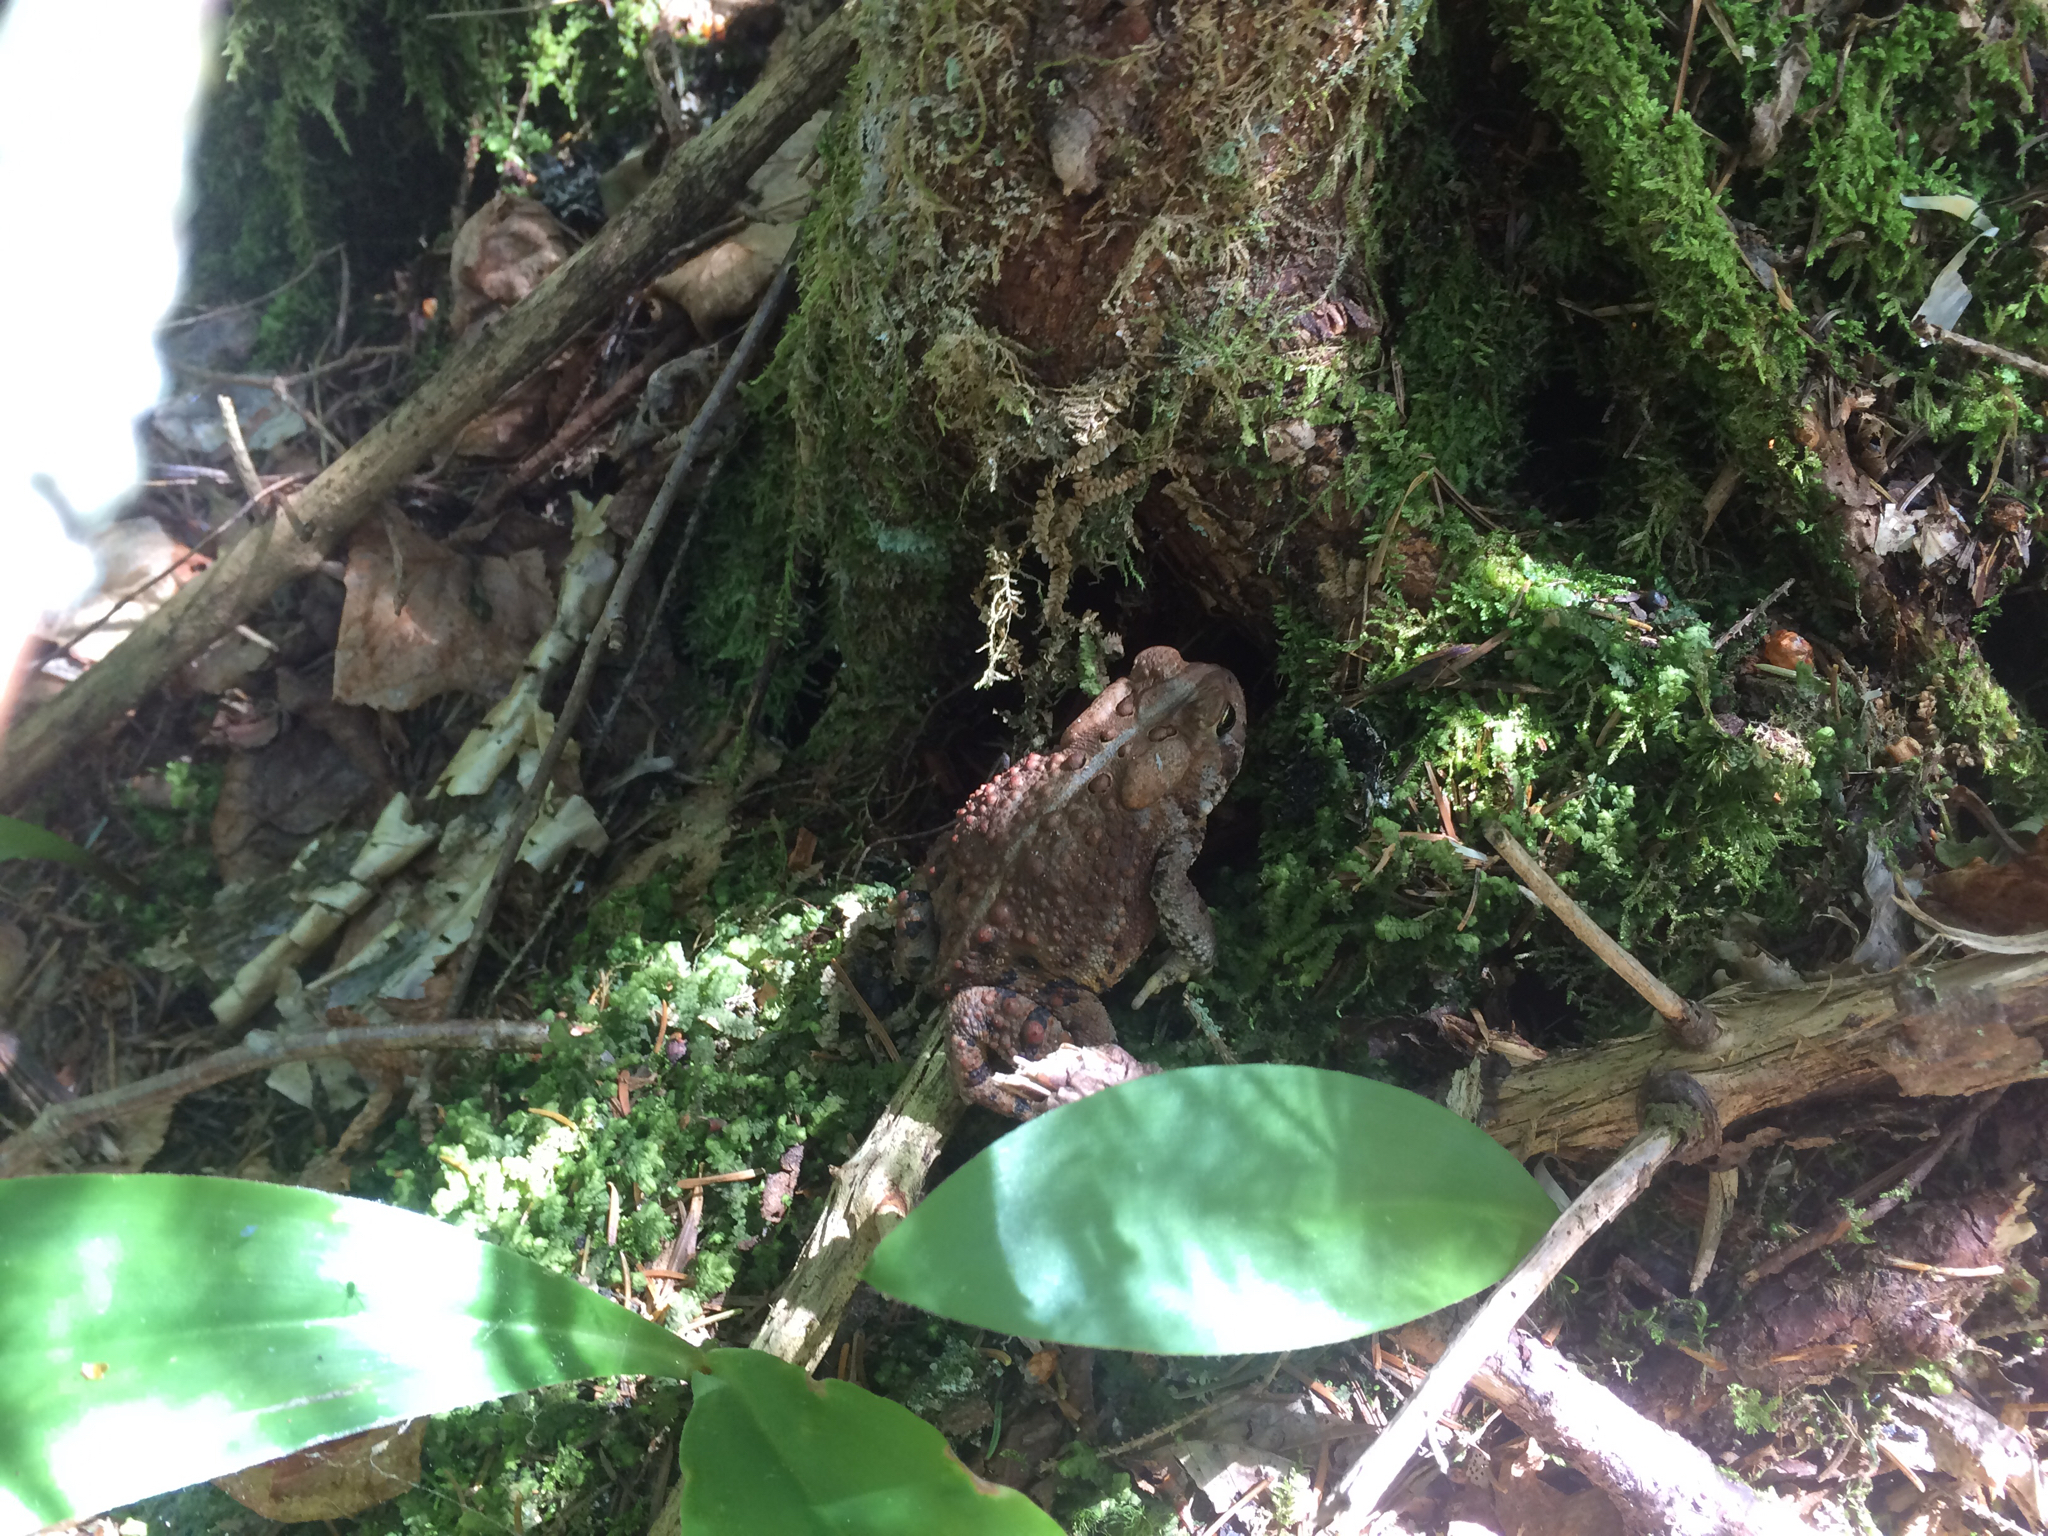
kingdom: Animalia
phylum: Chordata
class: Amphibia
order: Anura
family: Bufonidae
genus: Anaxyrus
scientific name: Anaxyrus americanus
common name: American toad
